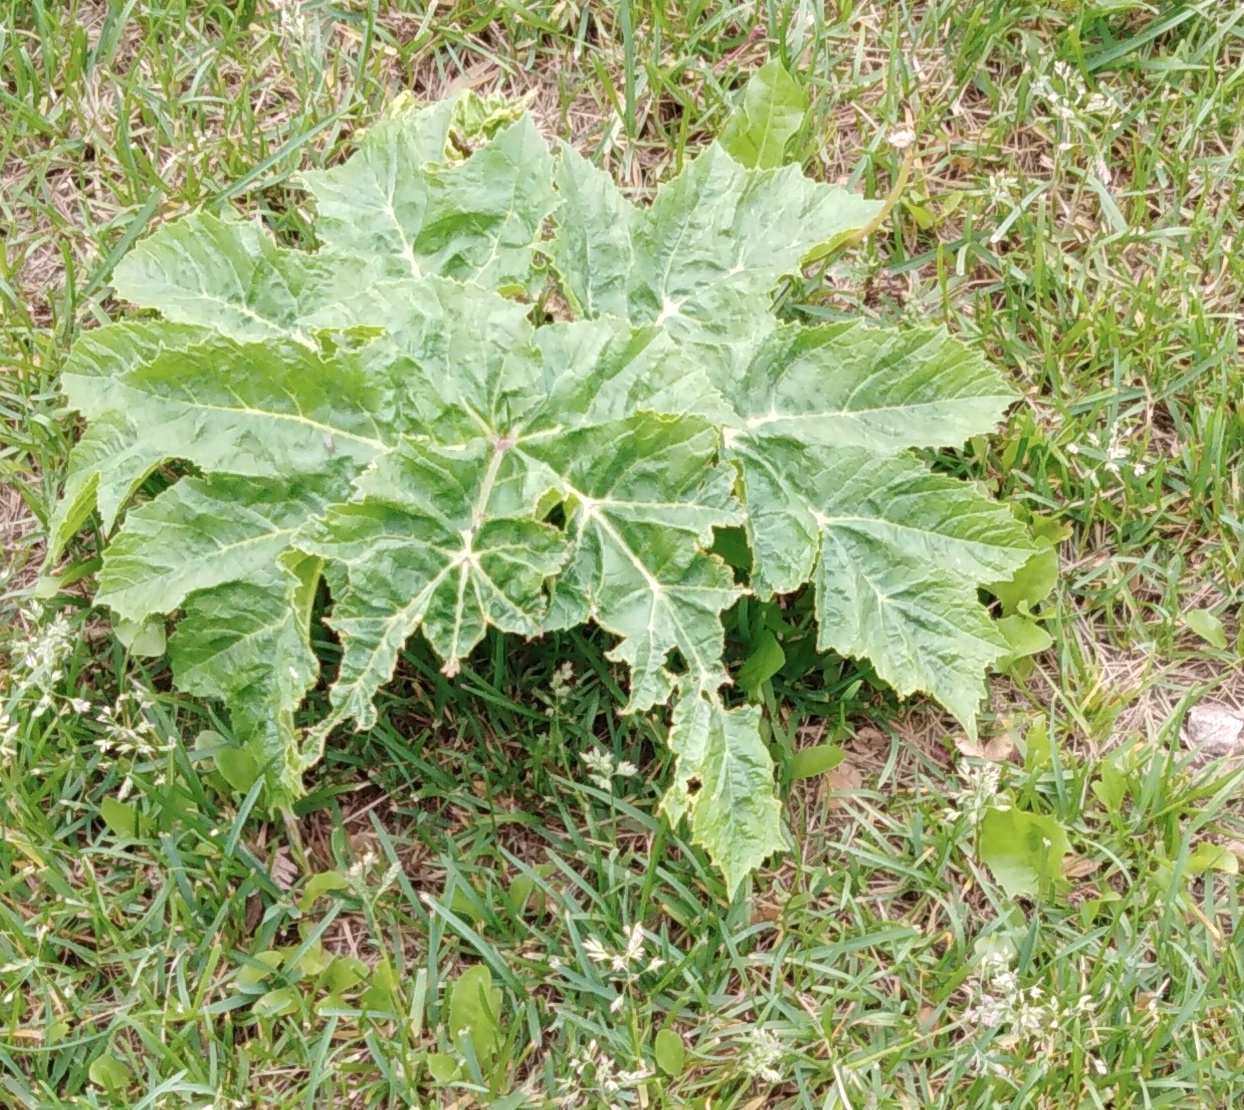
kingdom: Plantae
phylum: Tracheophyta
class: Magnoliopsida
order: Apiales
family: Apiaceae
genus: Heracleum
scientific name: Heracleum sosnowskyi
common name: Sosnowsky's hogweed
